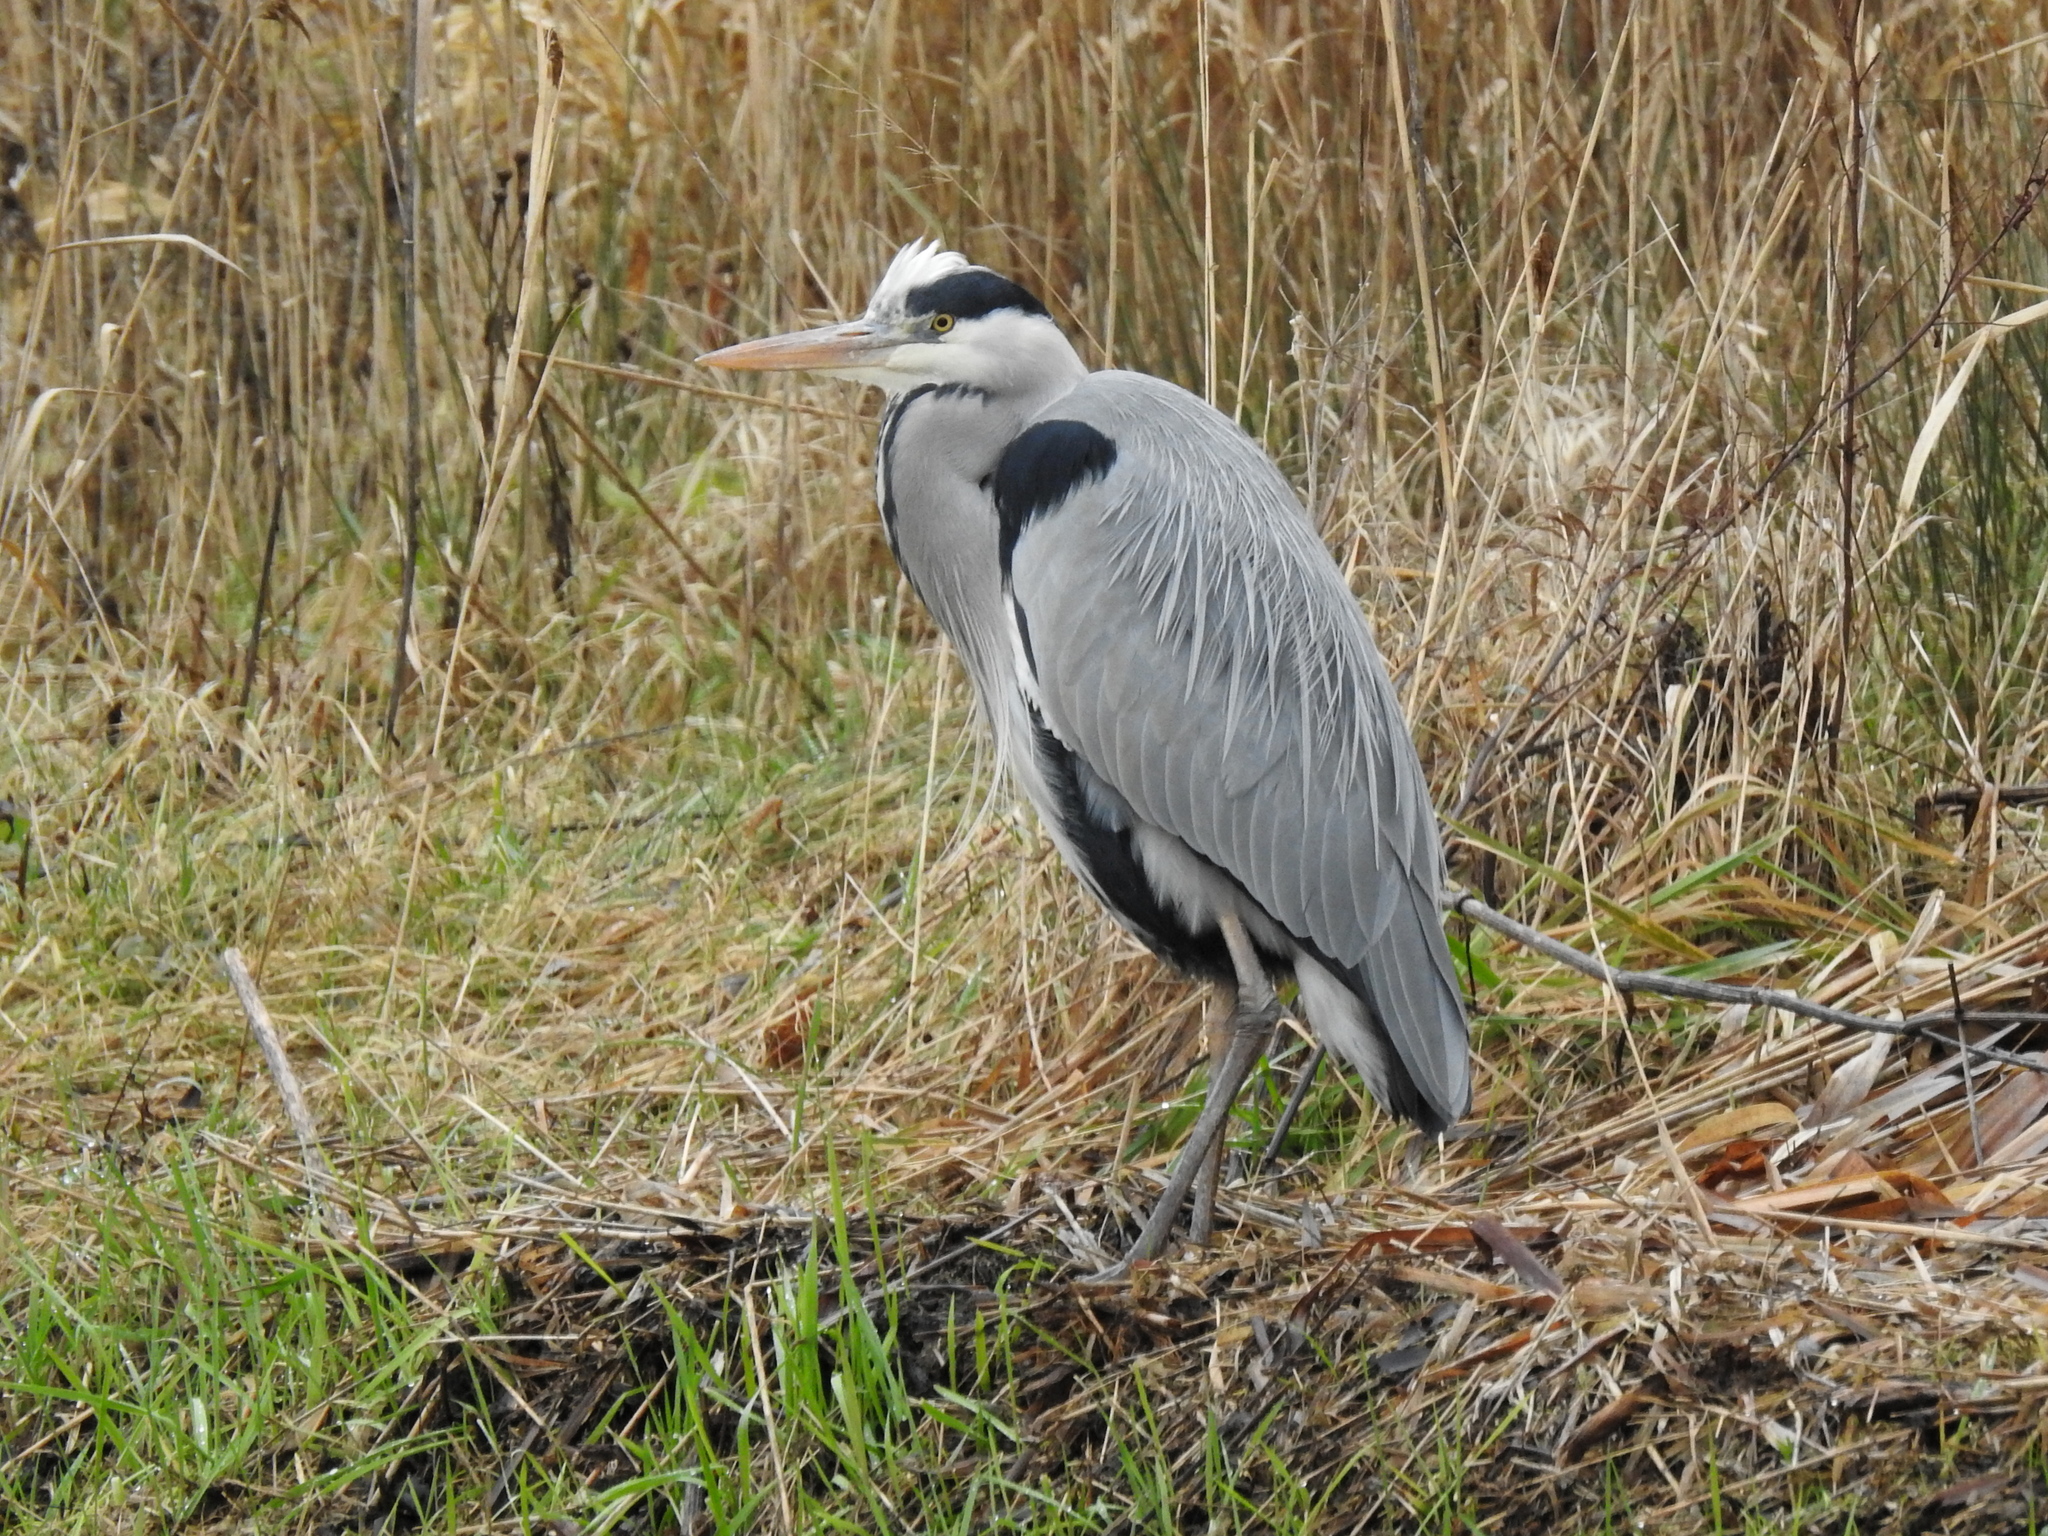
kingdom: Animalia
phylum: Chordata
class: Aves
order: Pelecaniformes
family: Ardeidae
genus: Ardea
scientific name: Ardea cinerea
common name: Grey heron
